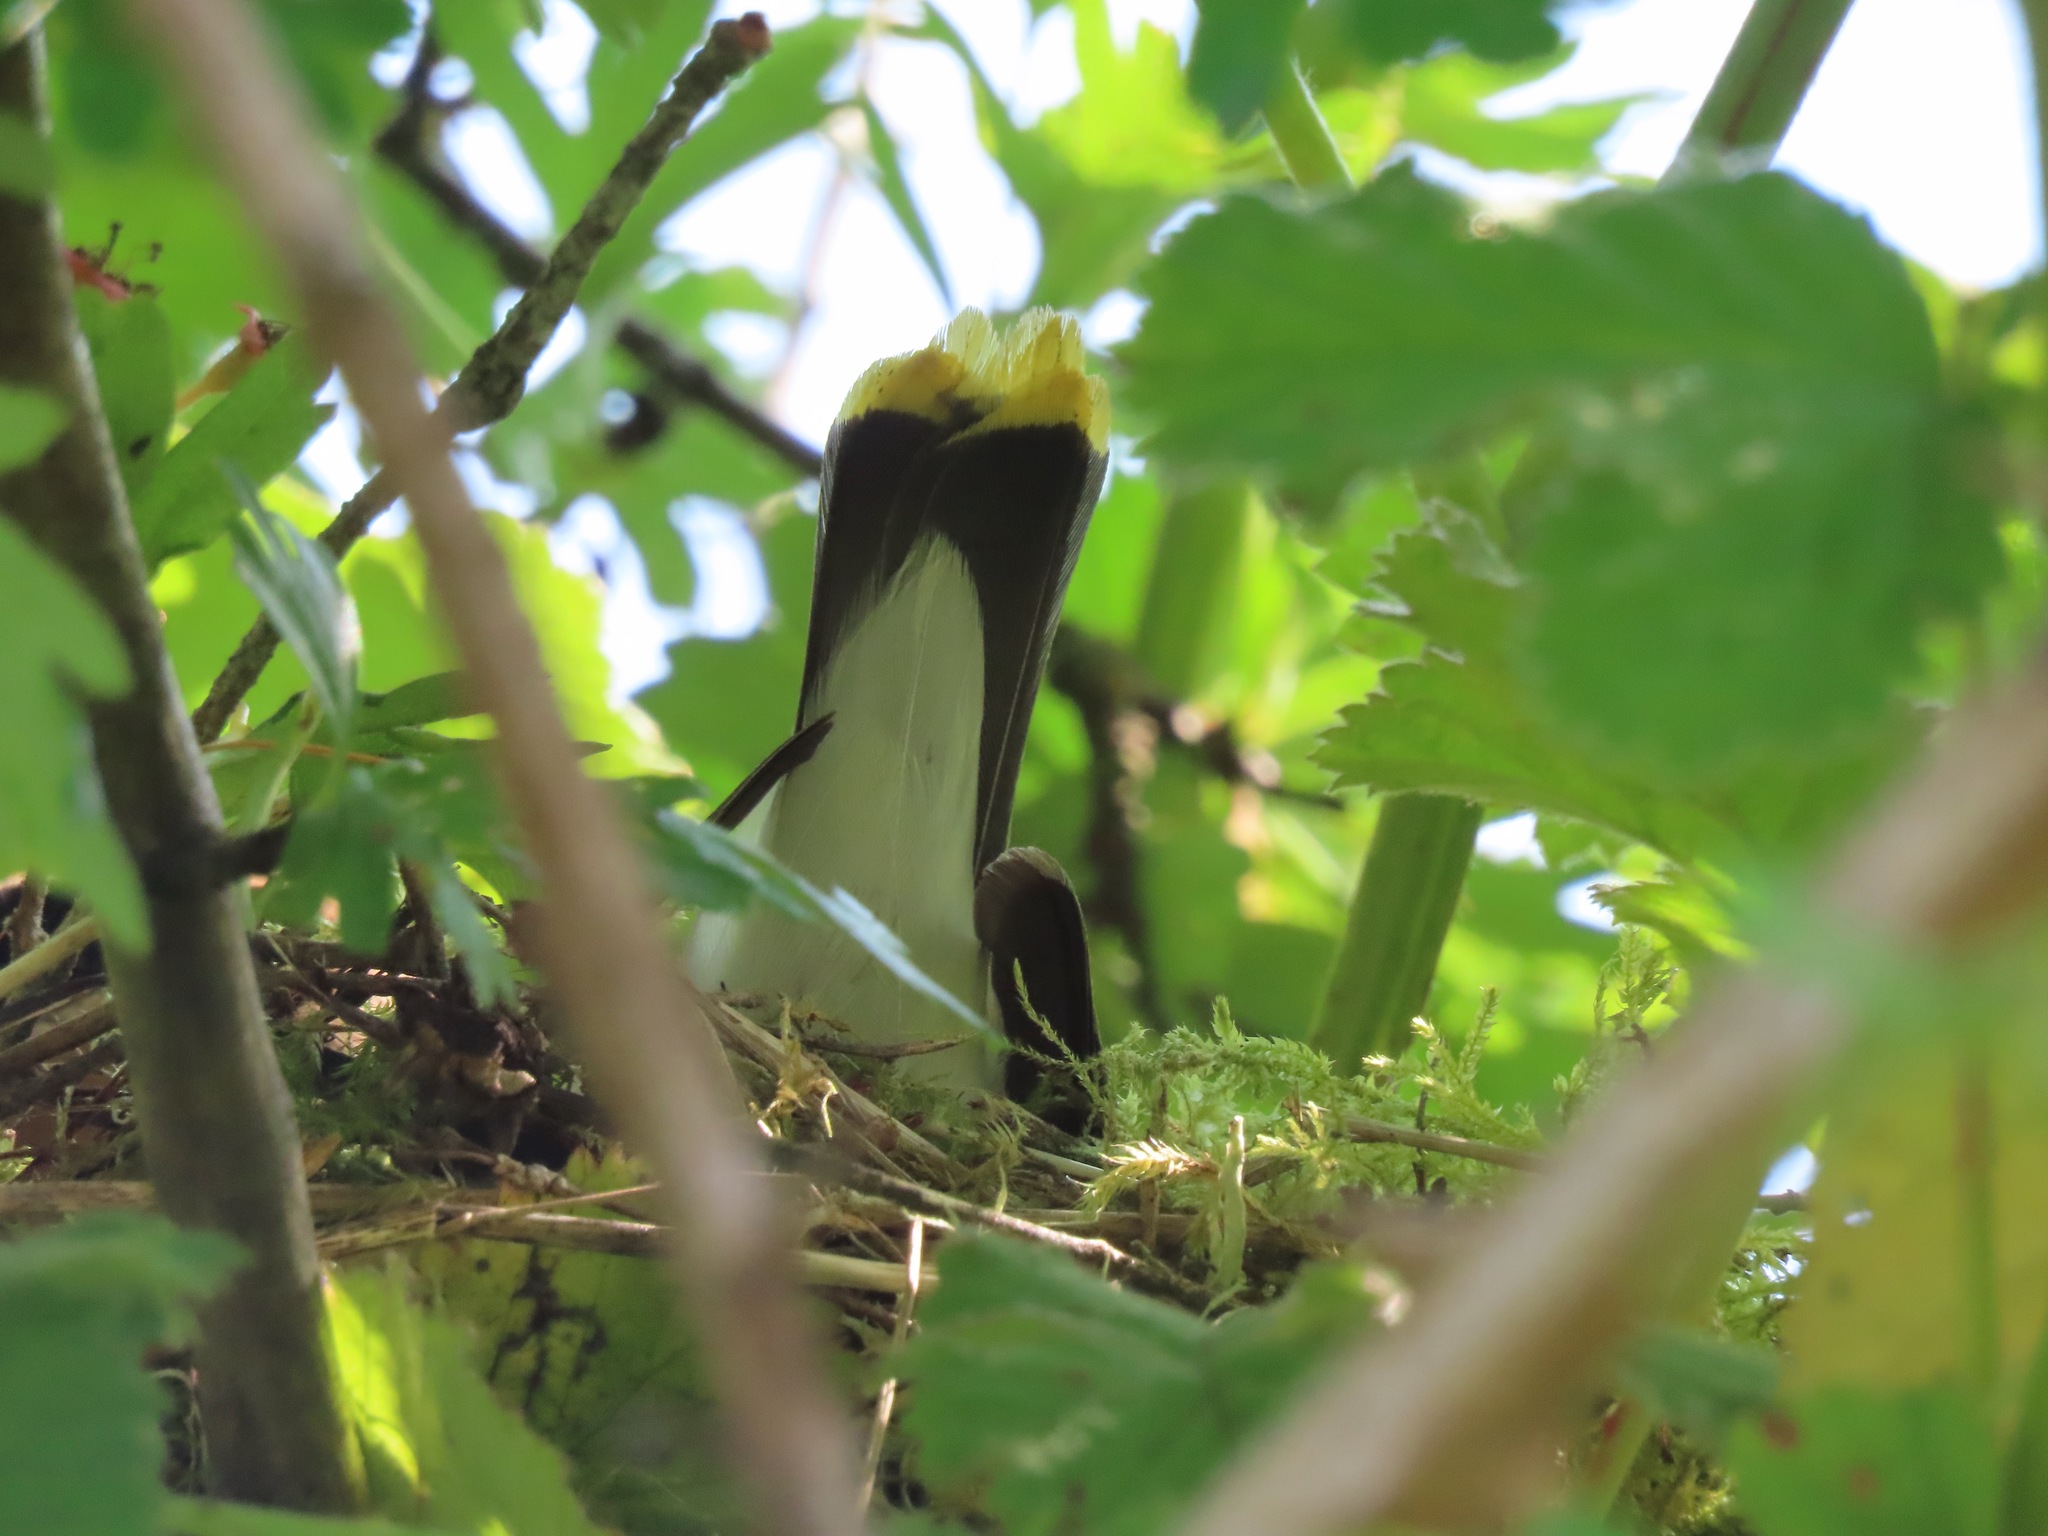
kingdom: Animalia
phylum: Chordata
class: Aves
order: Passeriformes
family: Bombycillidae
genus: Bombycilla
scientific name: Bombycilla cedrorum
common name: Cedar waxwing
